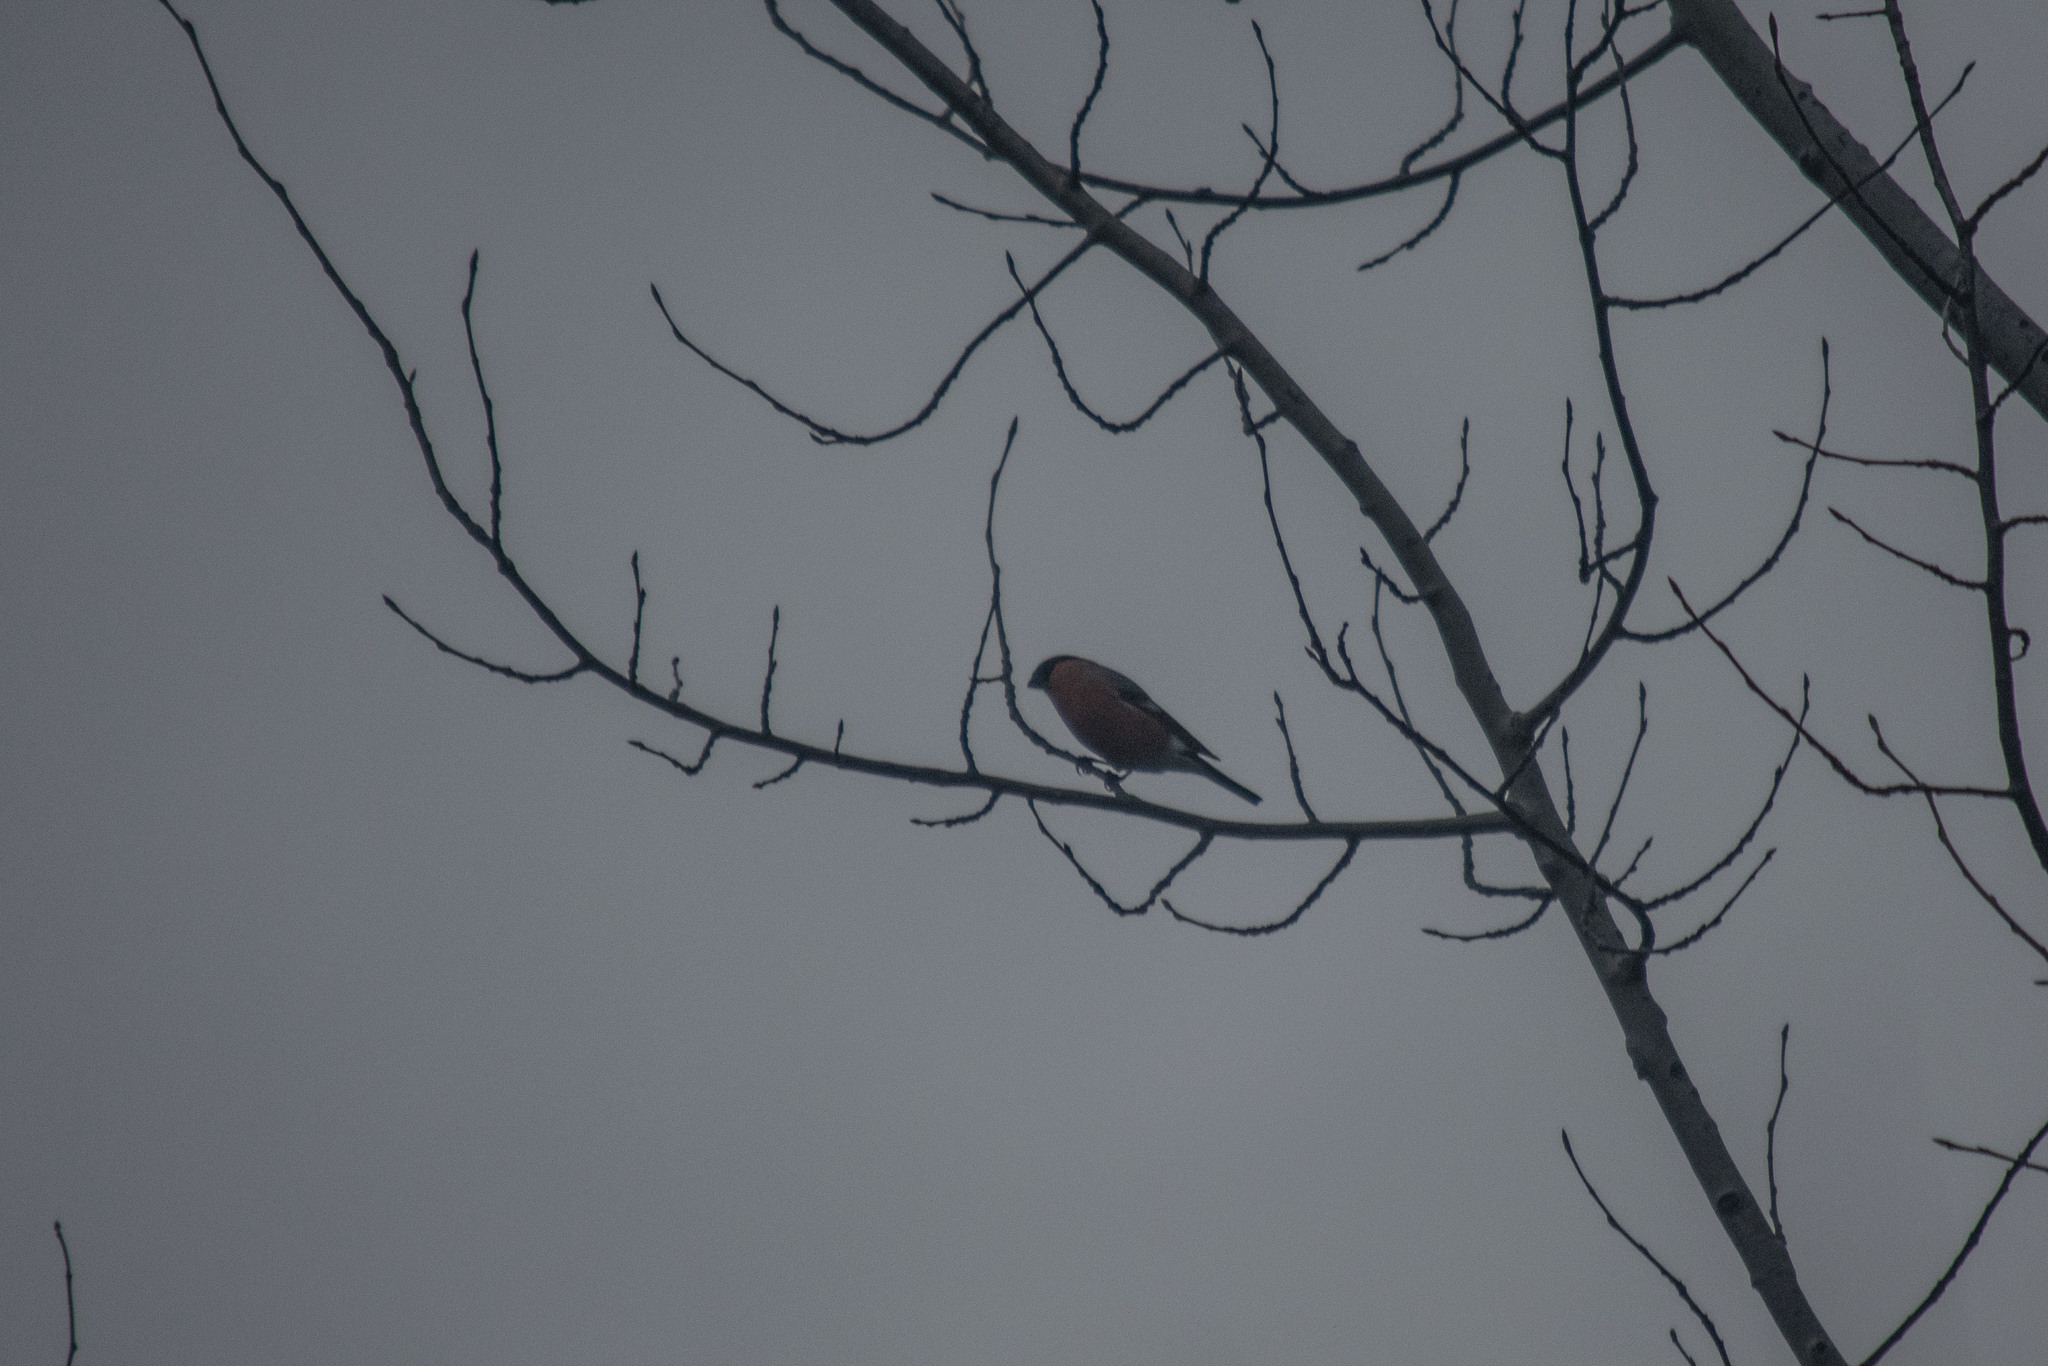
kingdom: Animalia
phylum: Chordata
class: Aves
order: Passeriformes
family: Fringillidae
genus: Pyrrhula
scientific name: Pyrrhula pyrrhula
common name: Eurasian bullfinch
